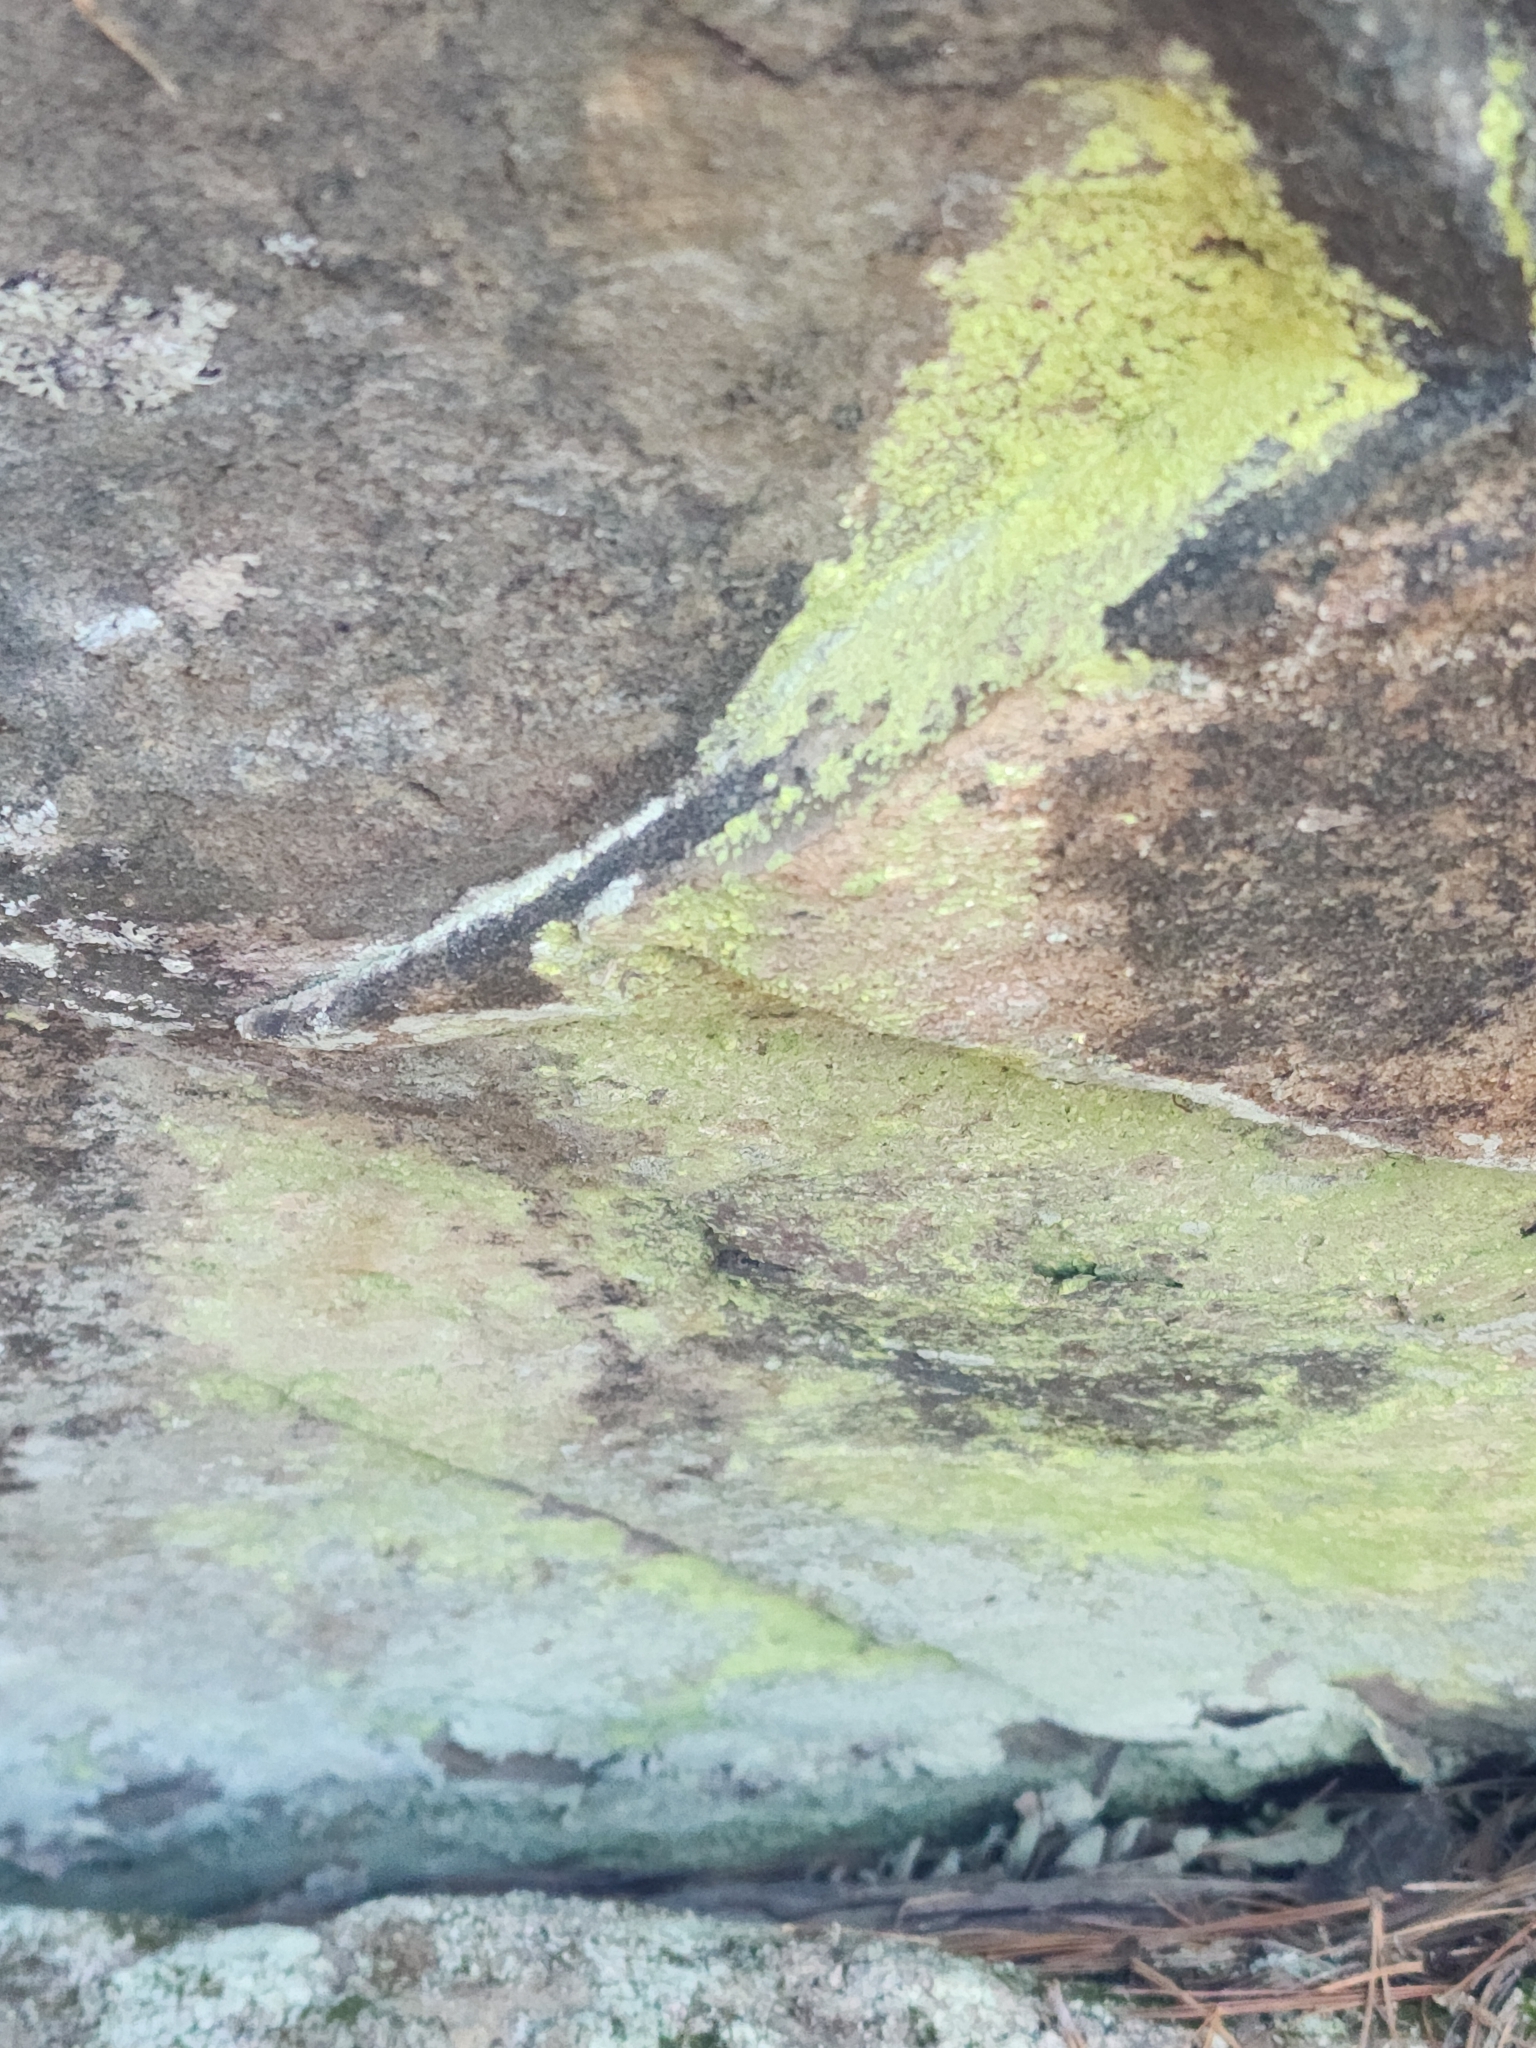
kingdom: Fungi
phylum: Ascomycota
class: Lecanoromycetes
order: Lecanorales
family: Psilolechiaceae
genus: Psilolechia
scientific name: Psilolechia lucida
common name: Sulphur dust lichen
